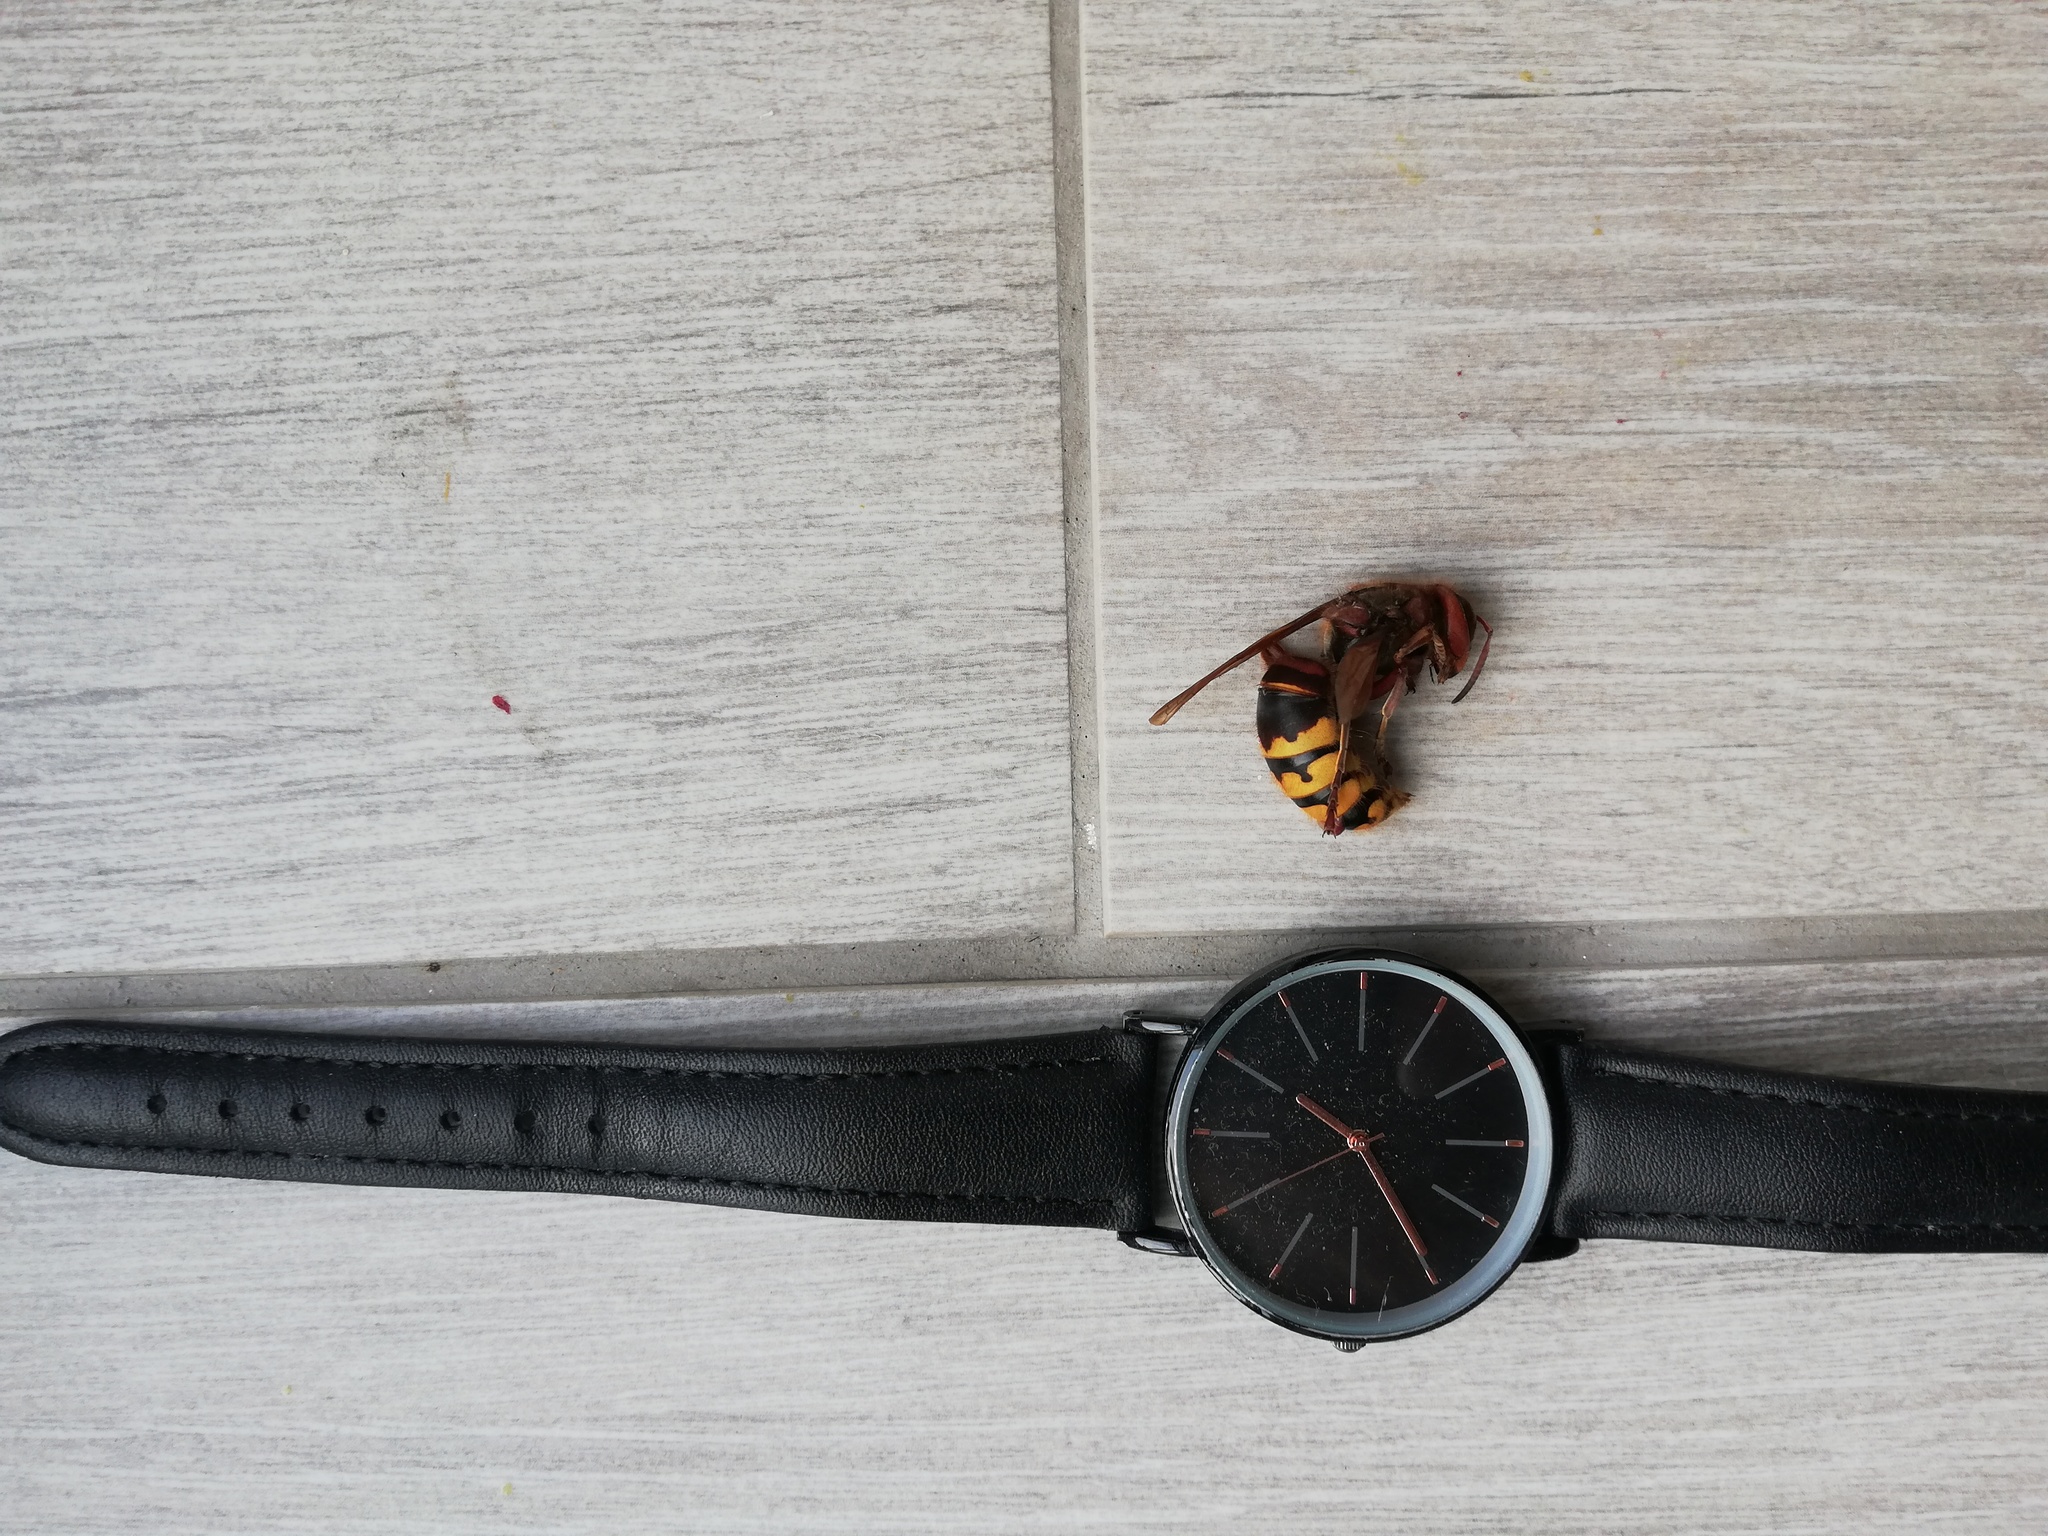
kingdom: Animalia
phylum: Arthropoda
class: Insecta
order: Hymenoptera
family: Vespidae
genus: Vespa
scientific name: Vespa crabro
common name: Hornet
